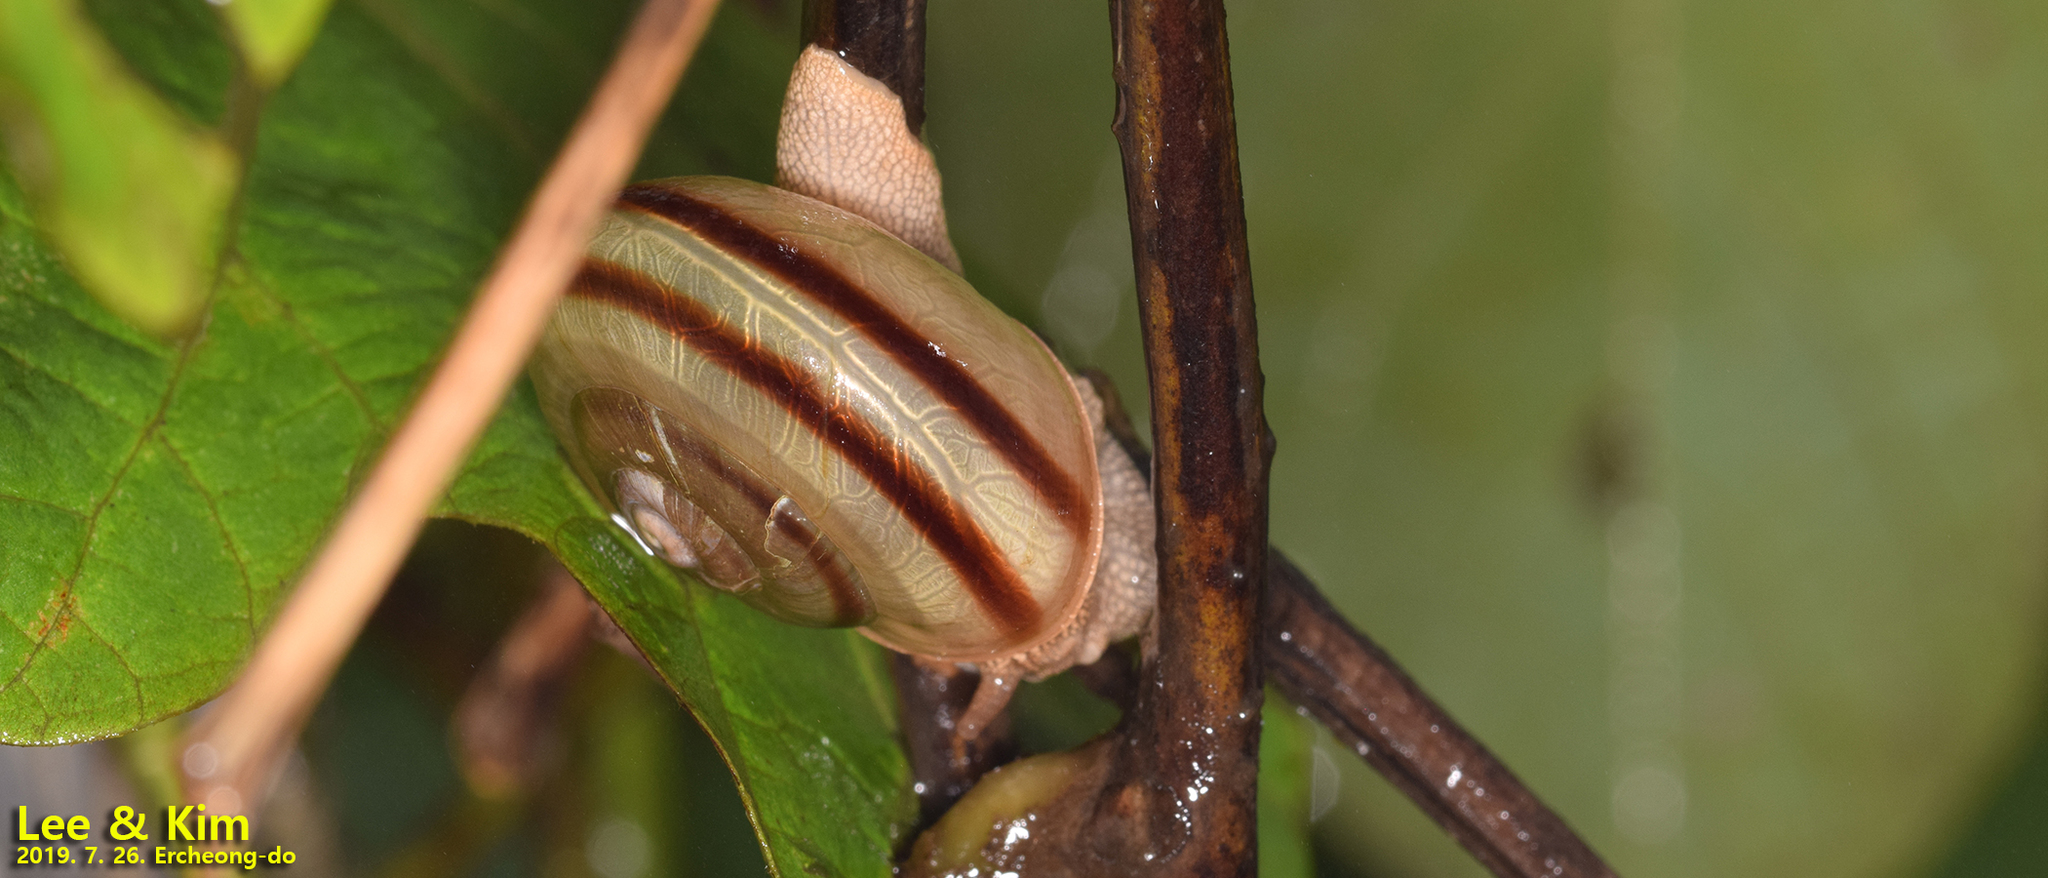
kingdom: Animalia
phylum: Mollusca
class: Gastropoda
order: Stylommatophora
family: Camaenidae
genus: Nesiohelix
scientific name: Nesiohelix samarangae
